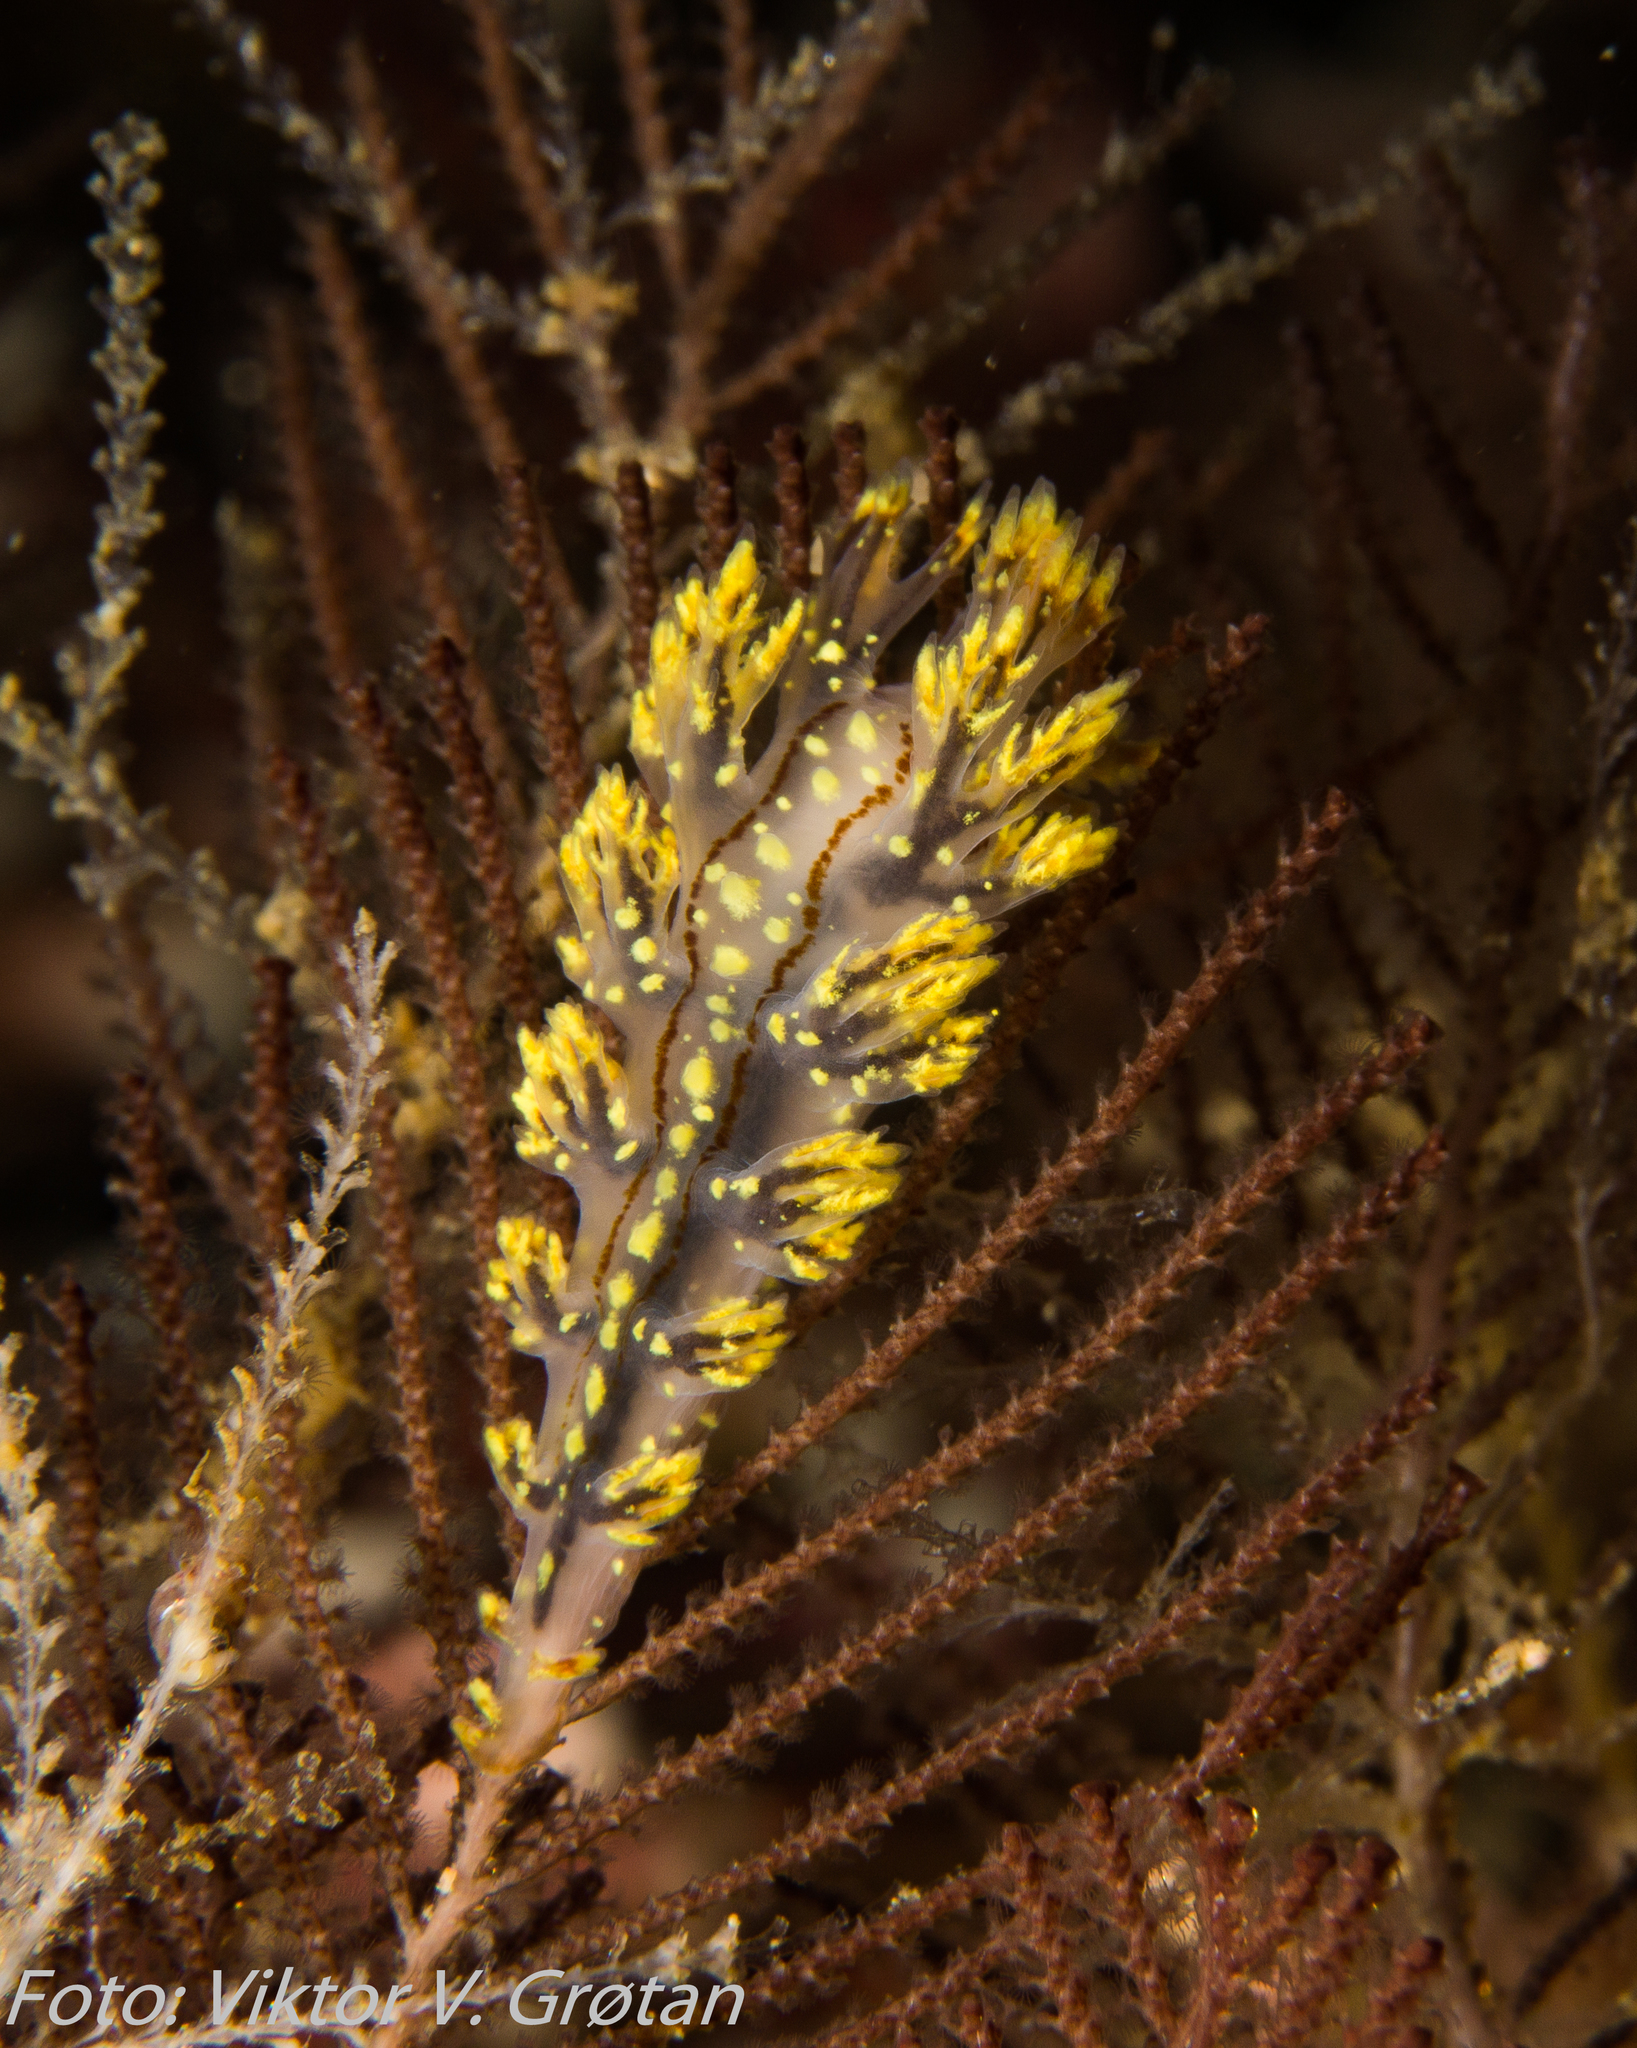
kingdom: Animalia
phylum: Mollusca
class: Gastropoda
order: Nudibranchia
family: Dendronotidae
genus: Dendronotus
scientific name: Dendronotus yrjargul
